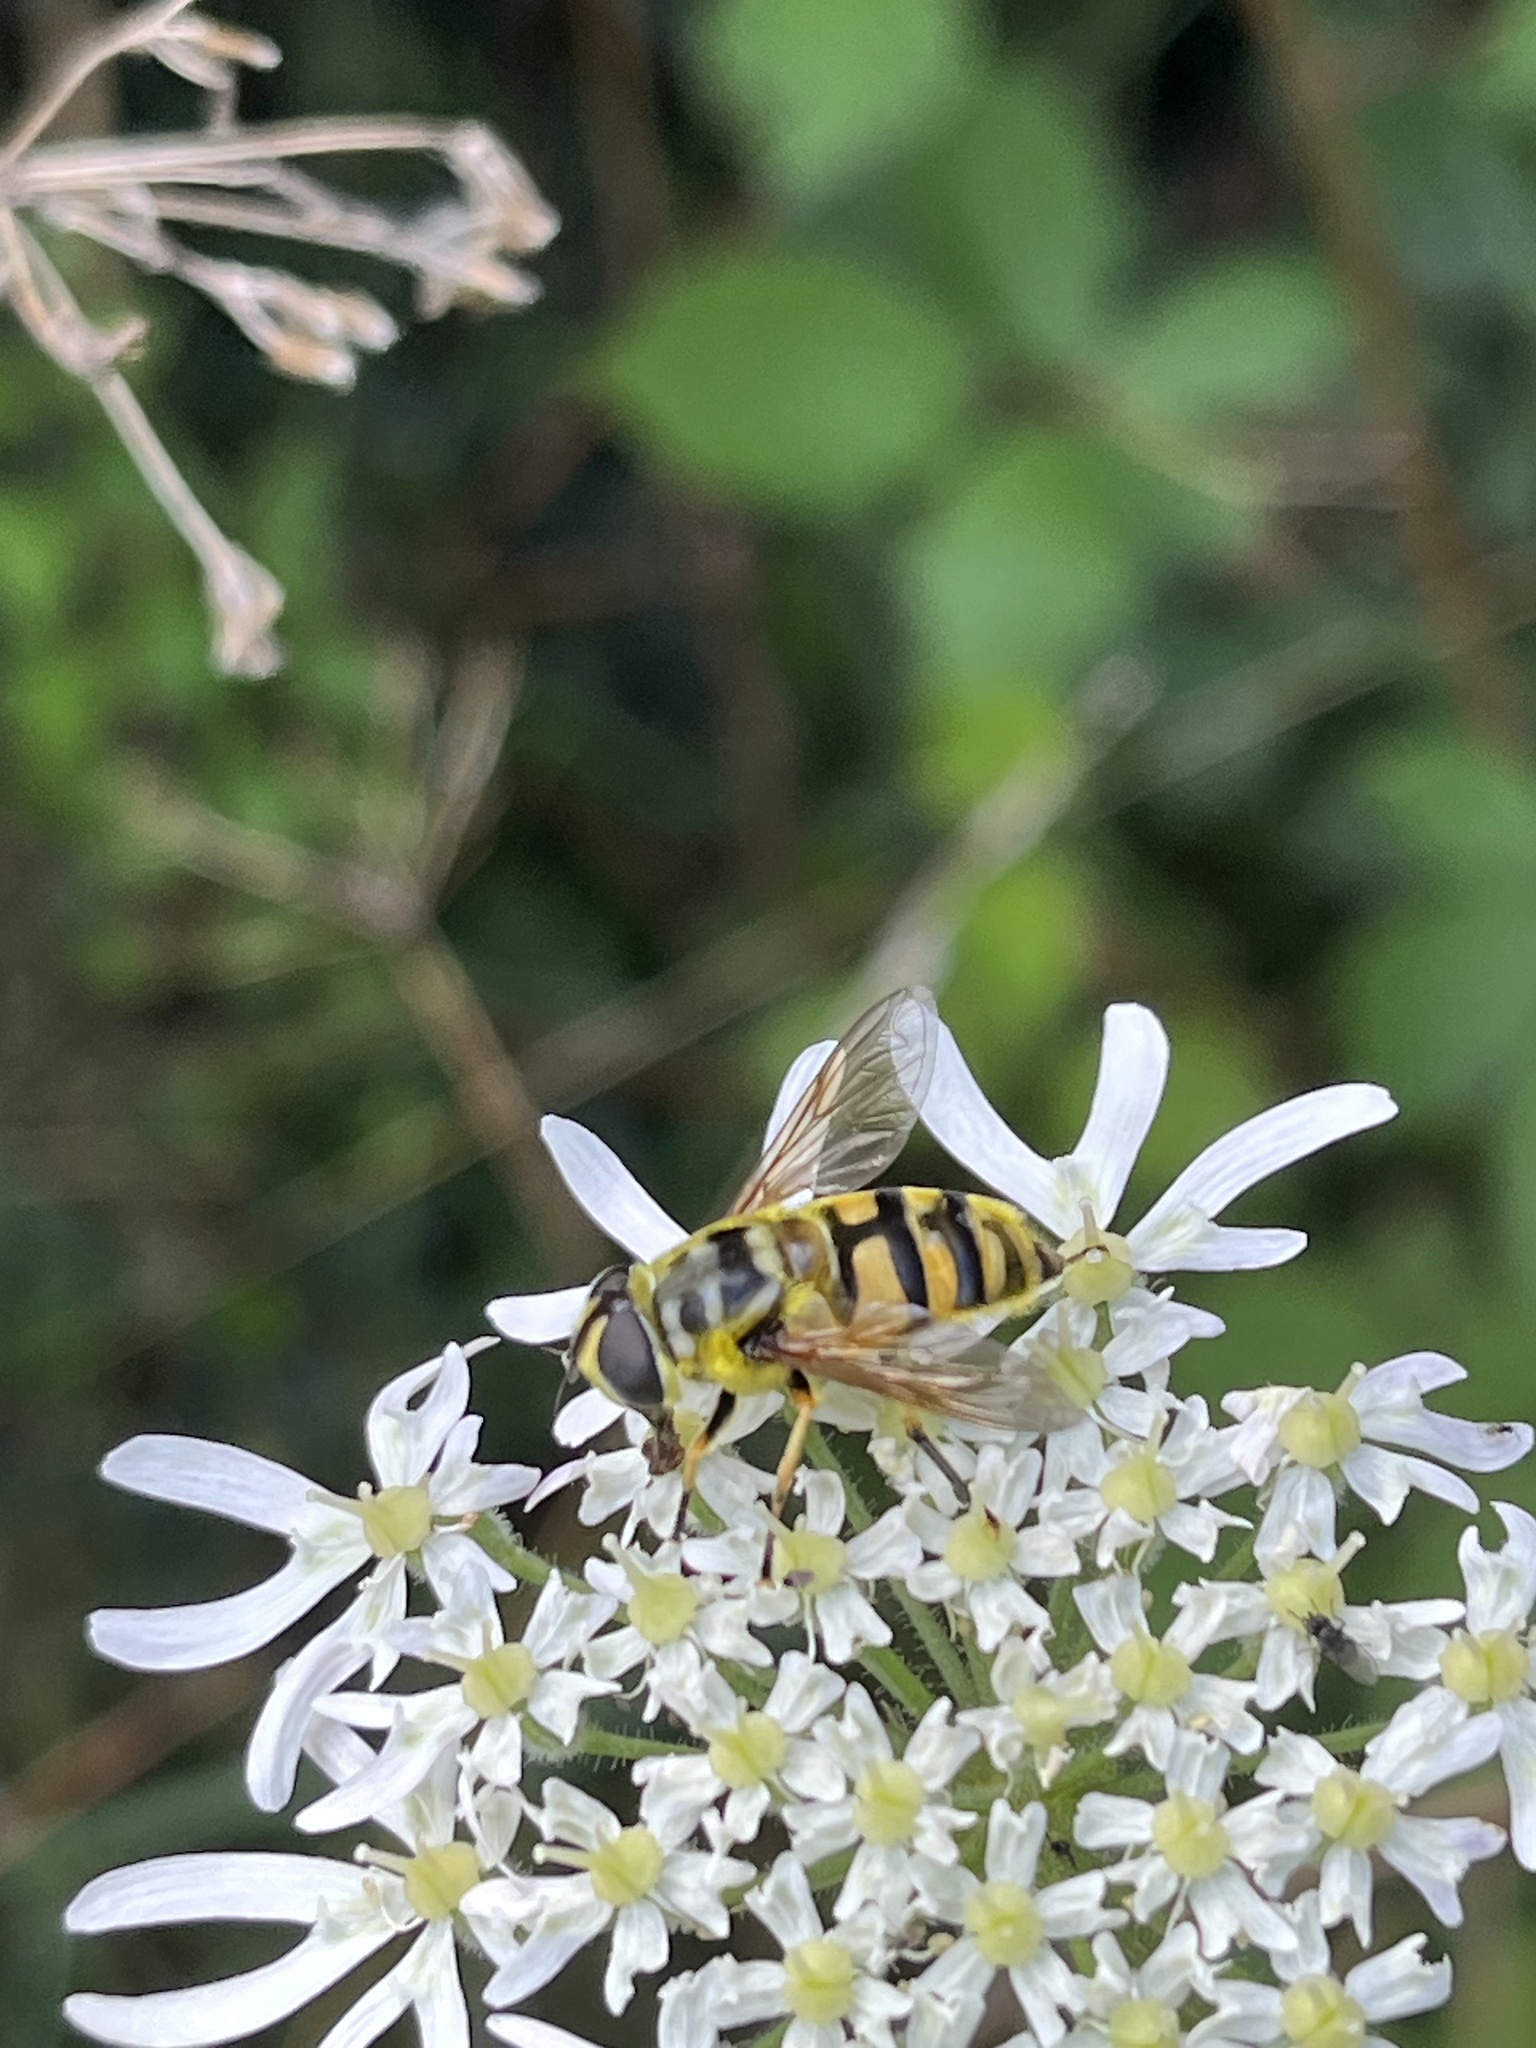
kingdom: Animalia
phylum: Arthropoda
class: Insecta
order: Diptera
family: Syrphidae
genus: Myathropa
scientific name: Myathropa florea
